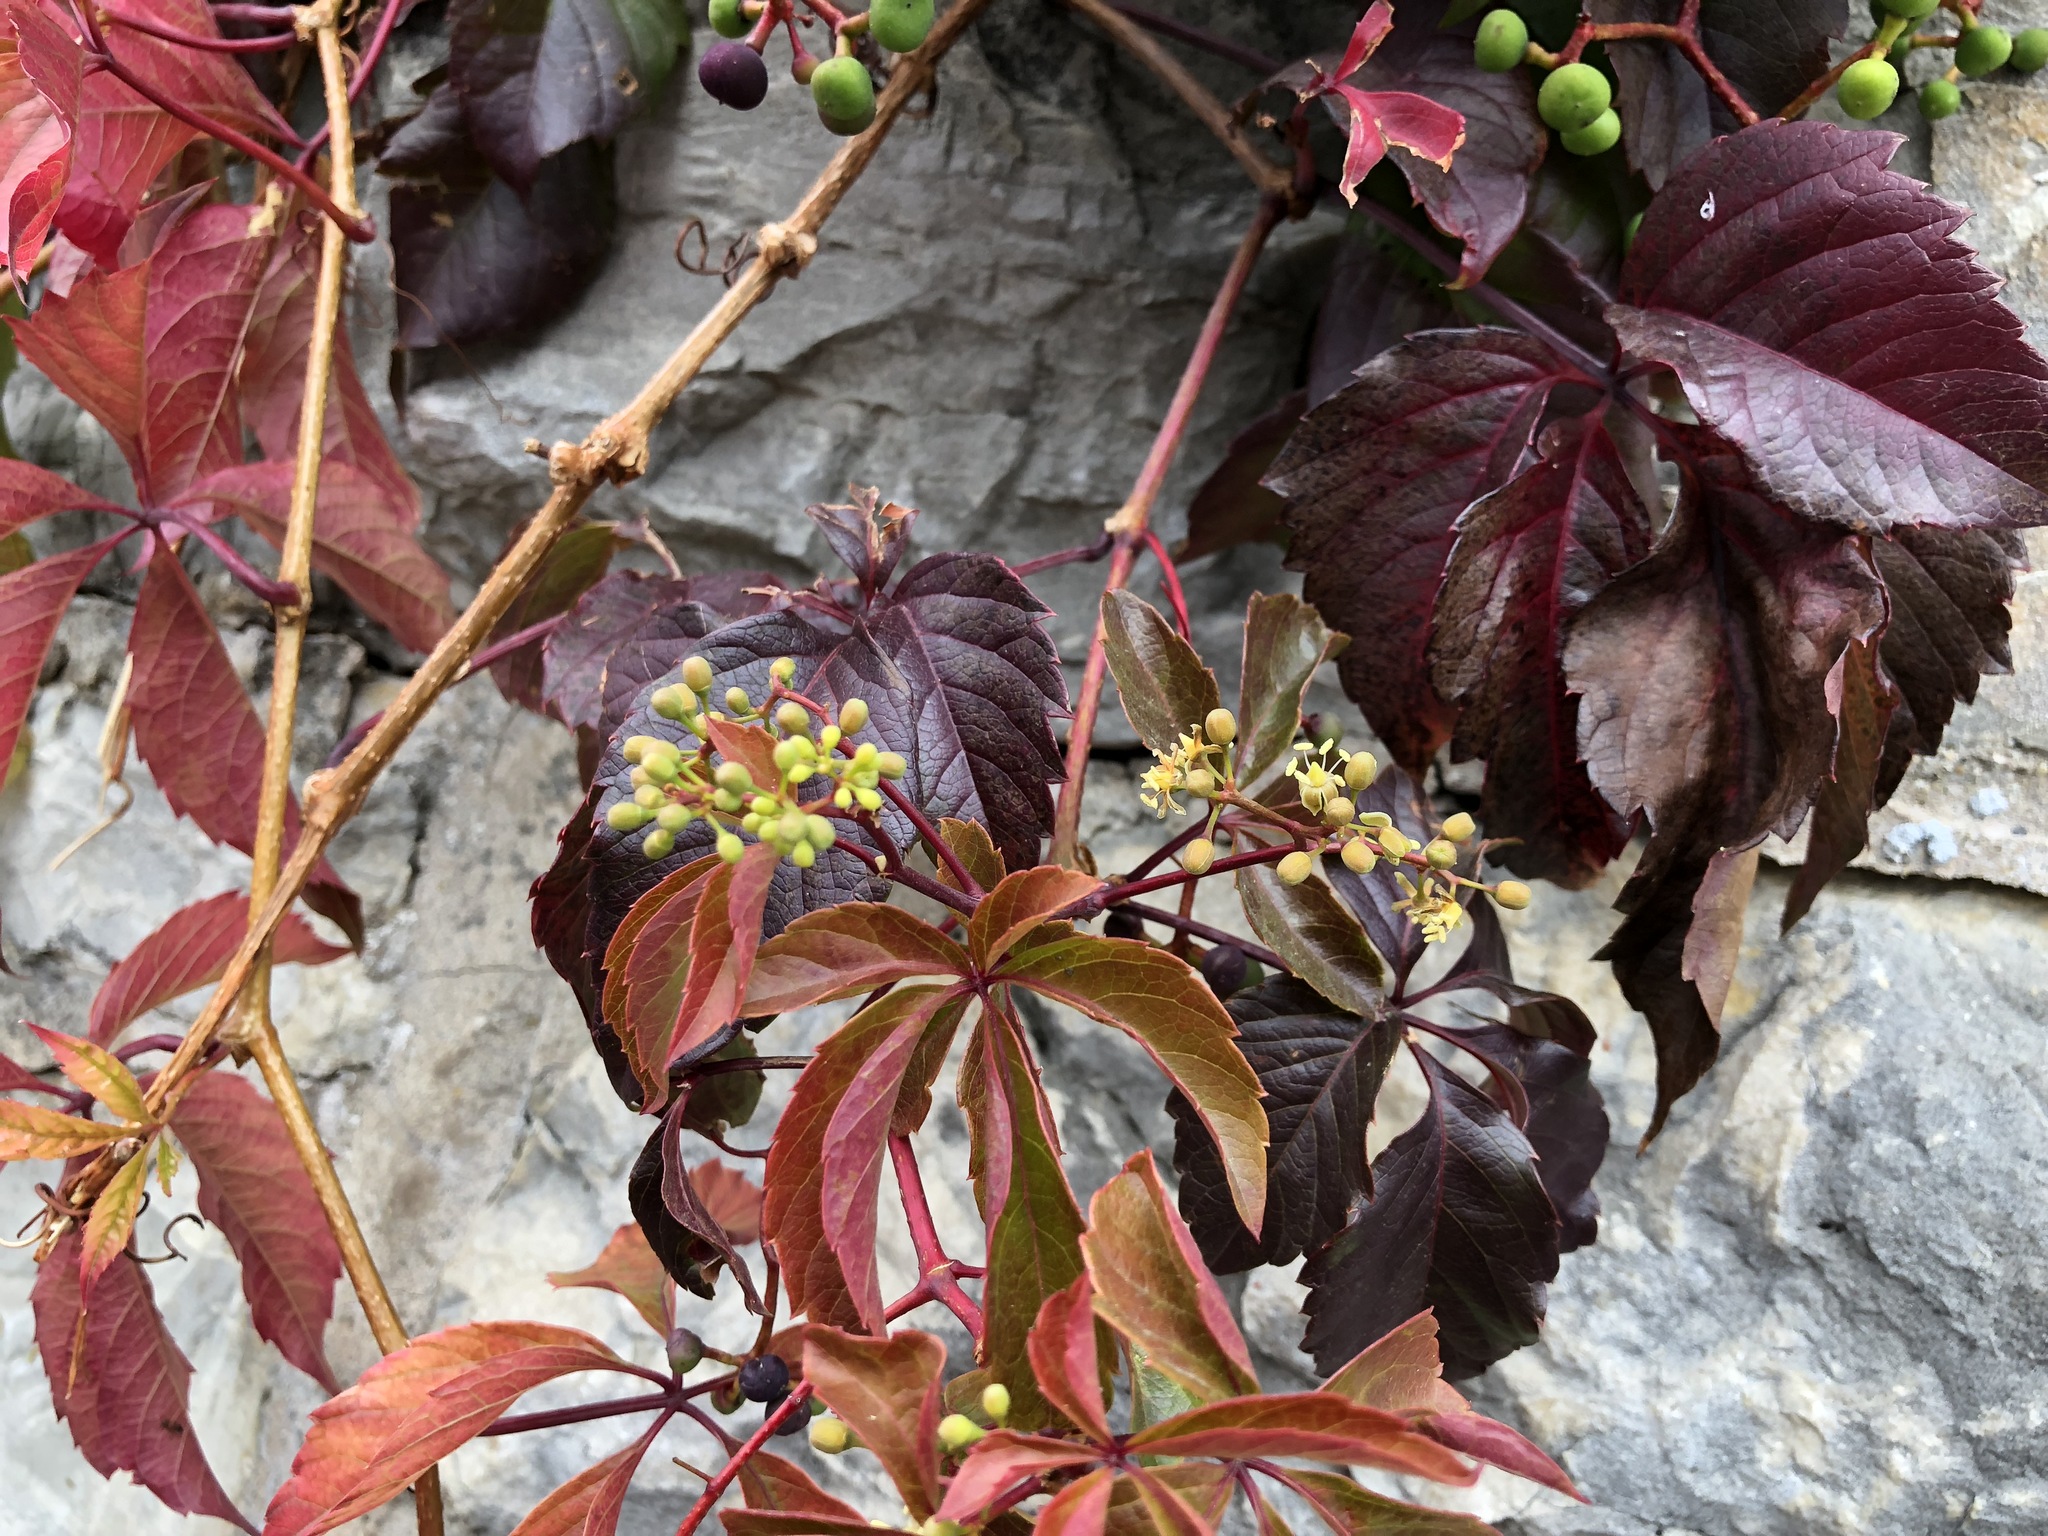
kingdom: Plantae
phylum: Tracheophyta
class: Magnoliopsida
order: Vitales
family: Vitaceae
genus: Parthenocissus
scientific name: Parthenocissus quinquefolia
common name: Virginia-creeper
